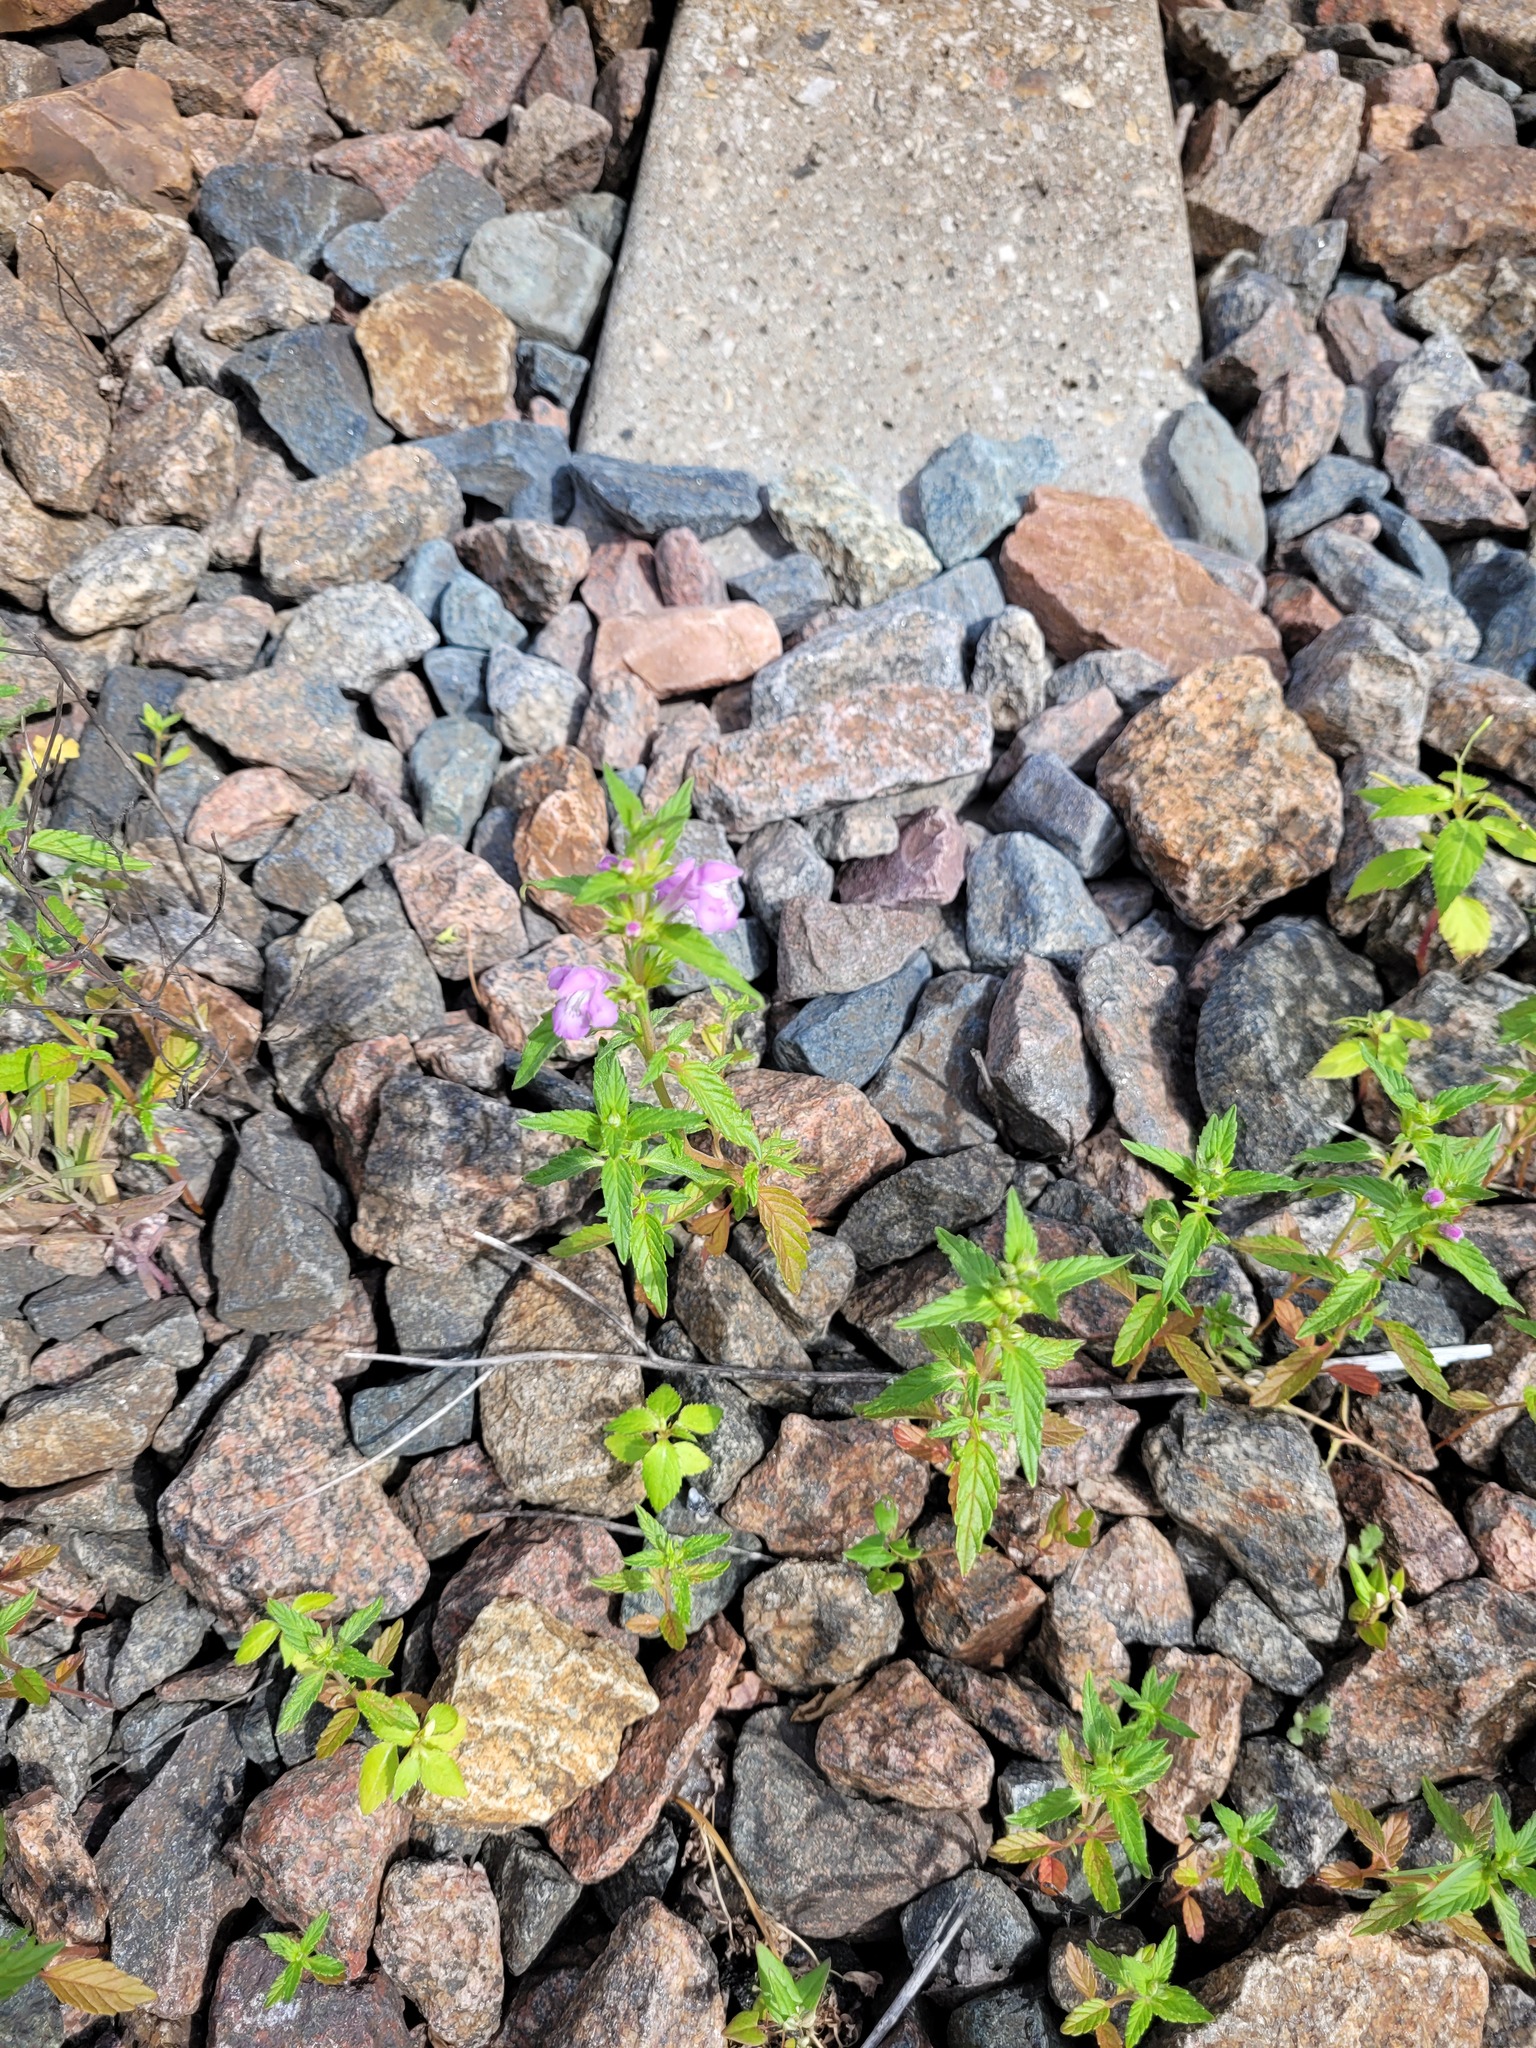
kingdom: Plantae
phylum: Tracheophyta
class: Magnoliopsida
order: Lamiales
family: Lamiaceae
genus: Galeopsis
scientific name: Galeopsis ladanum
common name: Broad-leaved hemp-nettle
